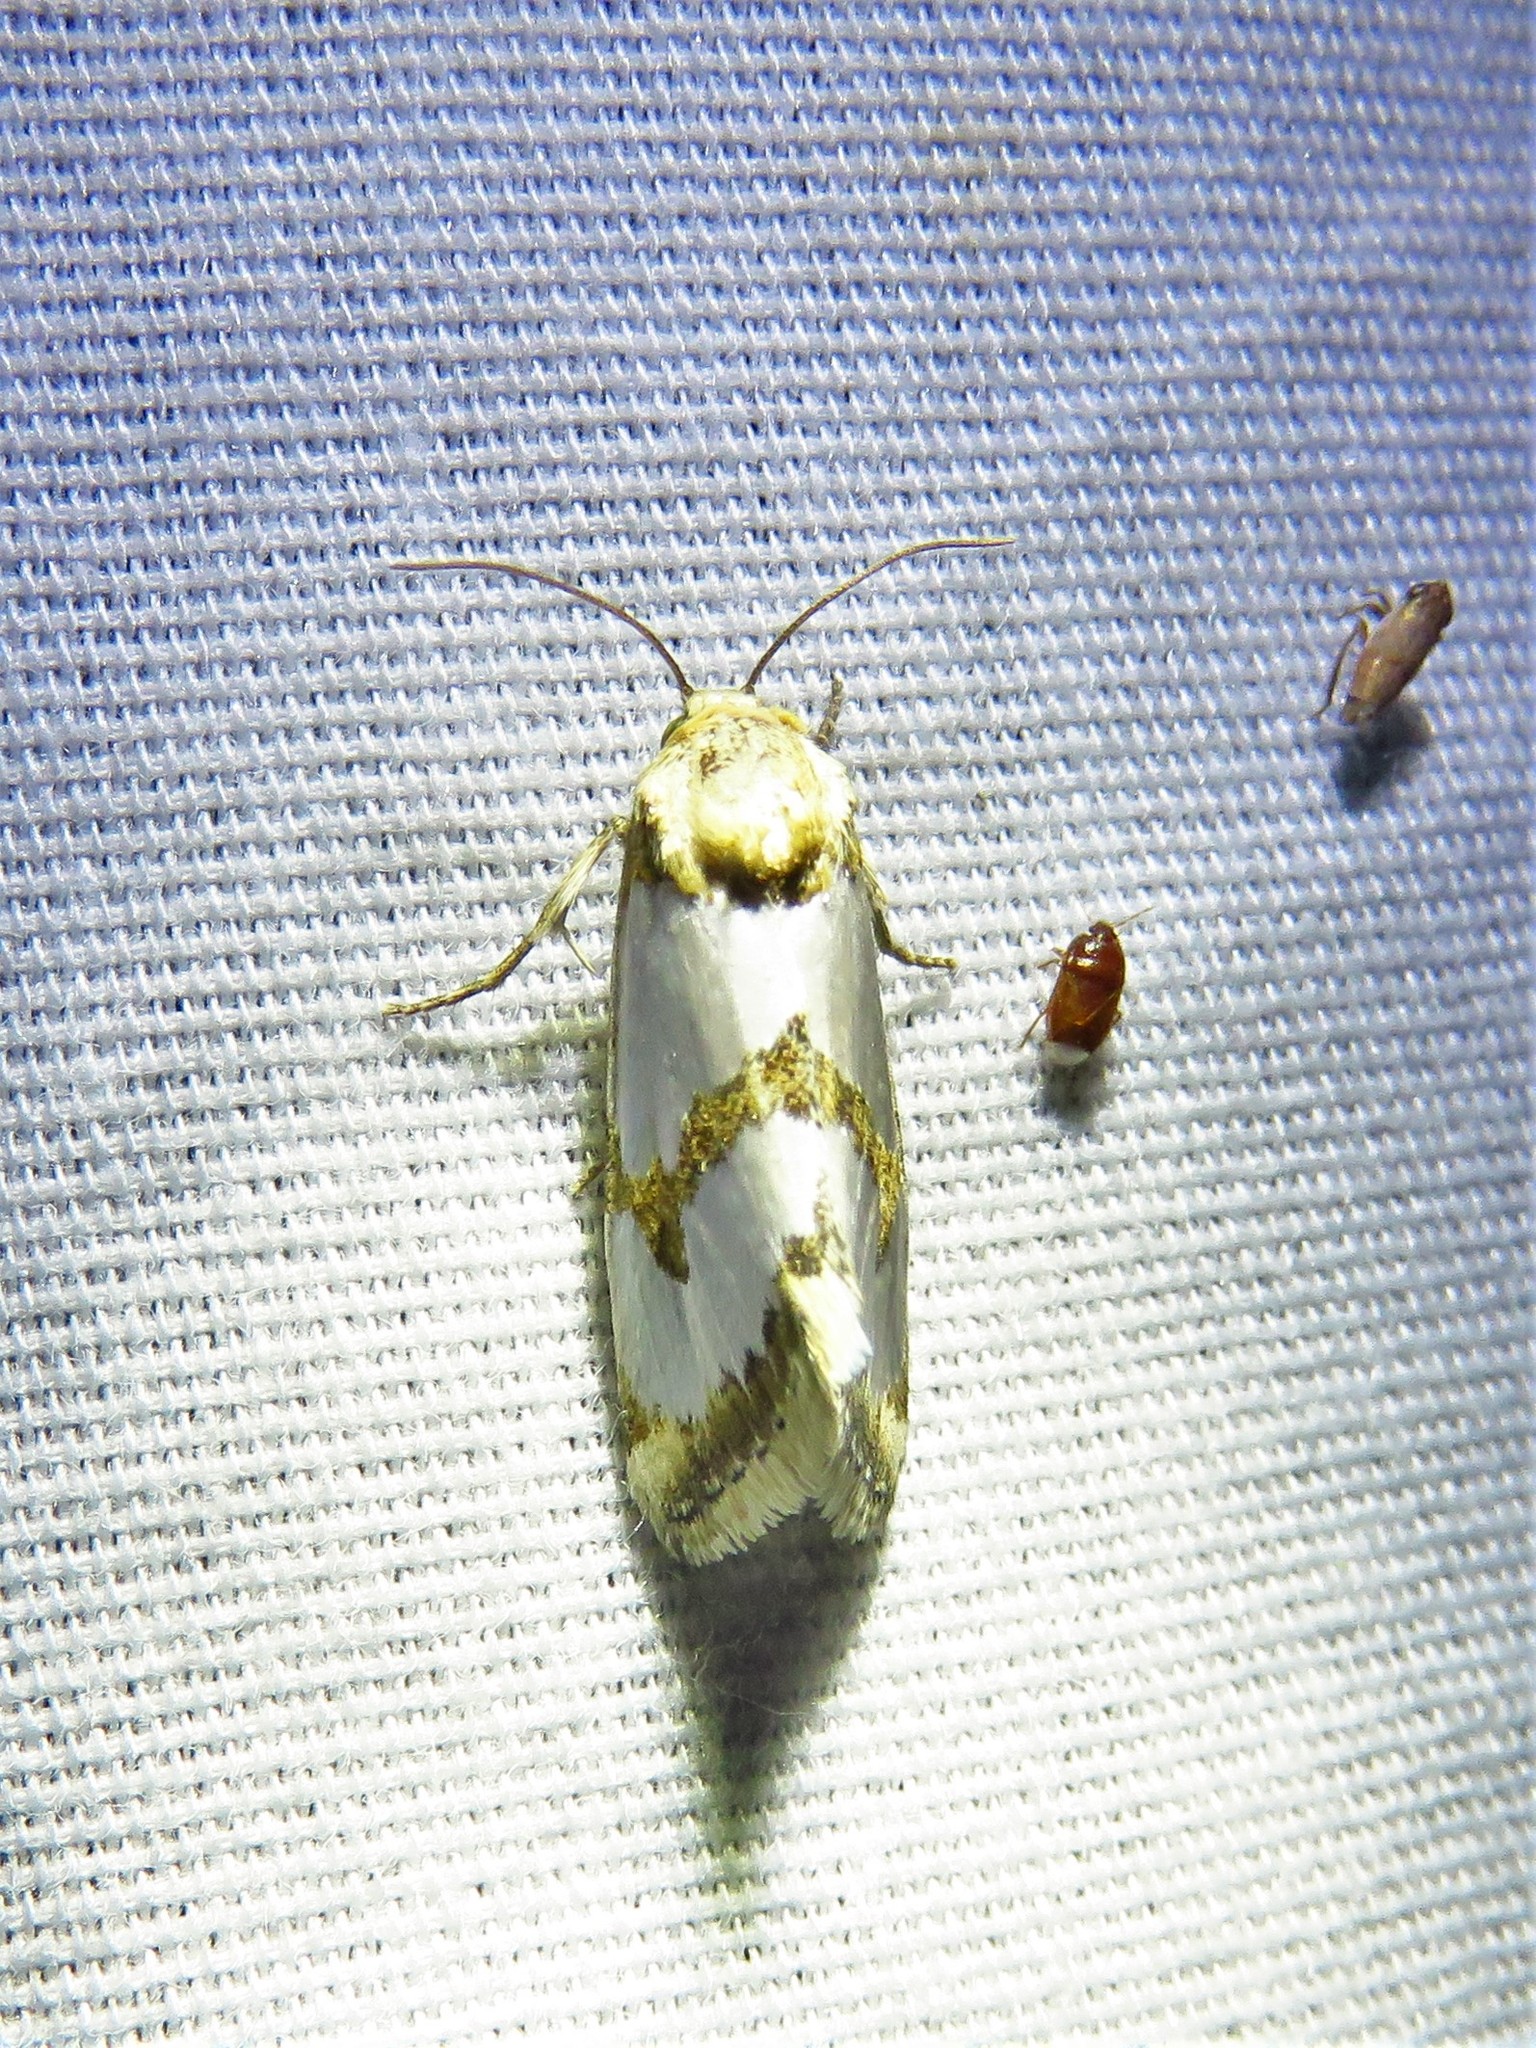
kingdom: Animalia
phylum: Arthropoda
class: Insecta
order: Lepidoptera
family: Noctuidae
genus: Schinia
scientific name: Schinia chrysellus
